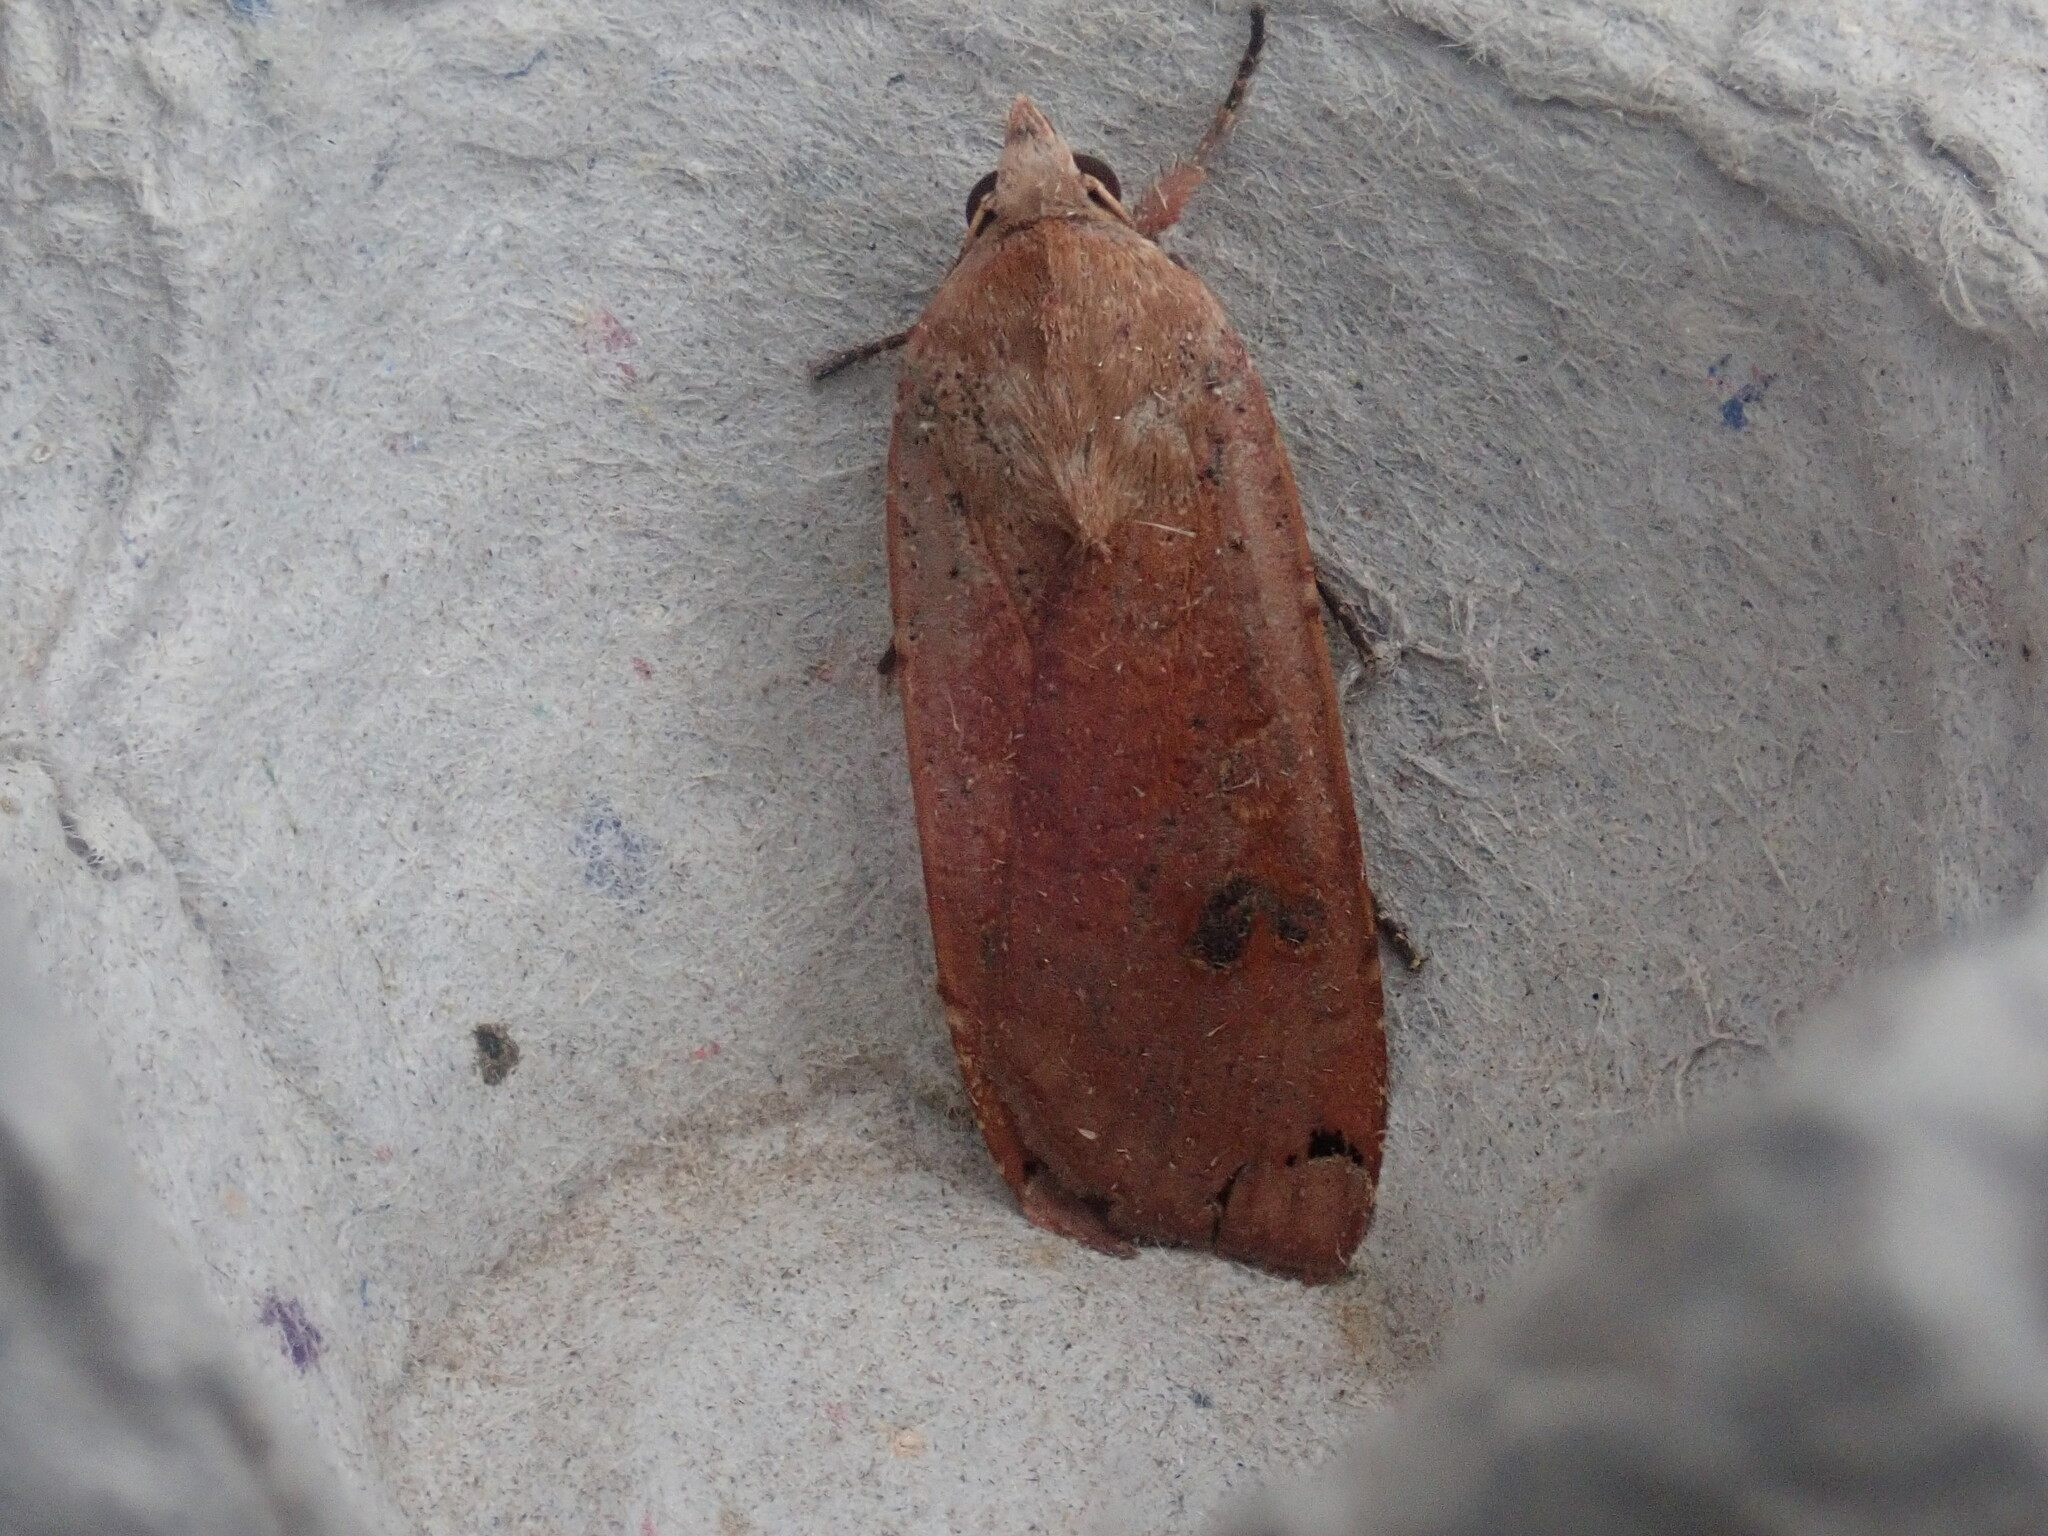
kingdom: Animalia
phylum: Arthropoda
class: Insecta
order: Lepidoptera
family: Noctuidae
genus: Noctua
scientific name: Noctua pronuba
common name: Large yellow underwing
